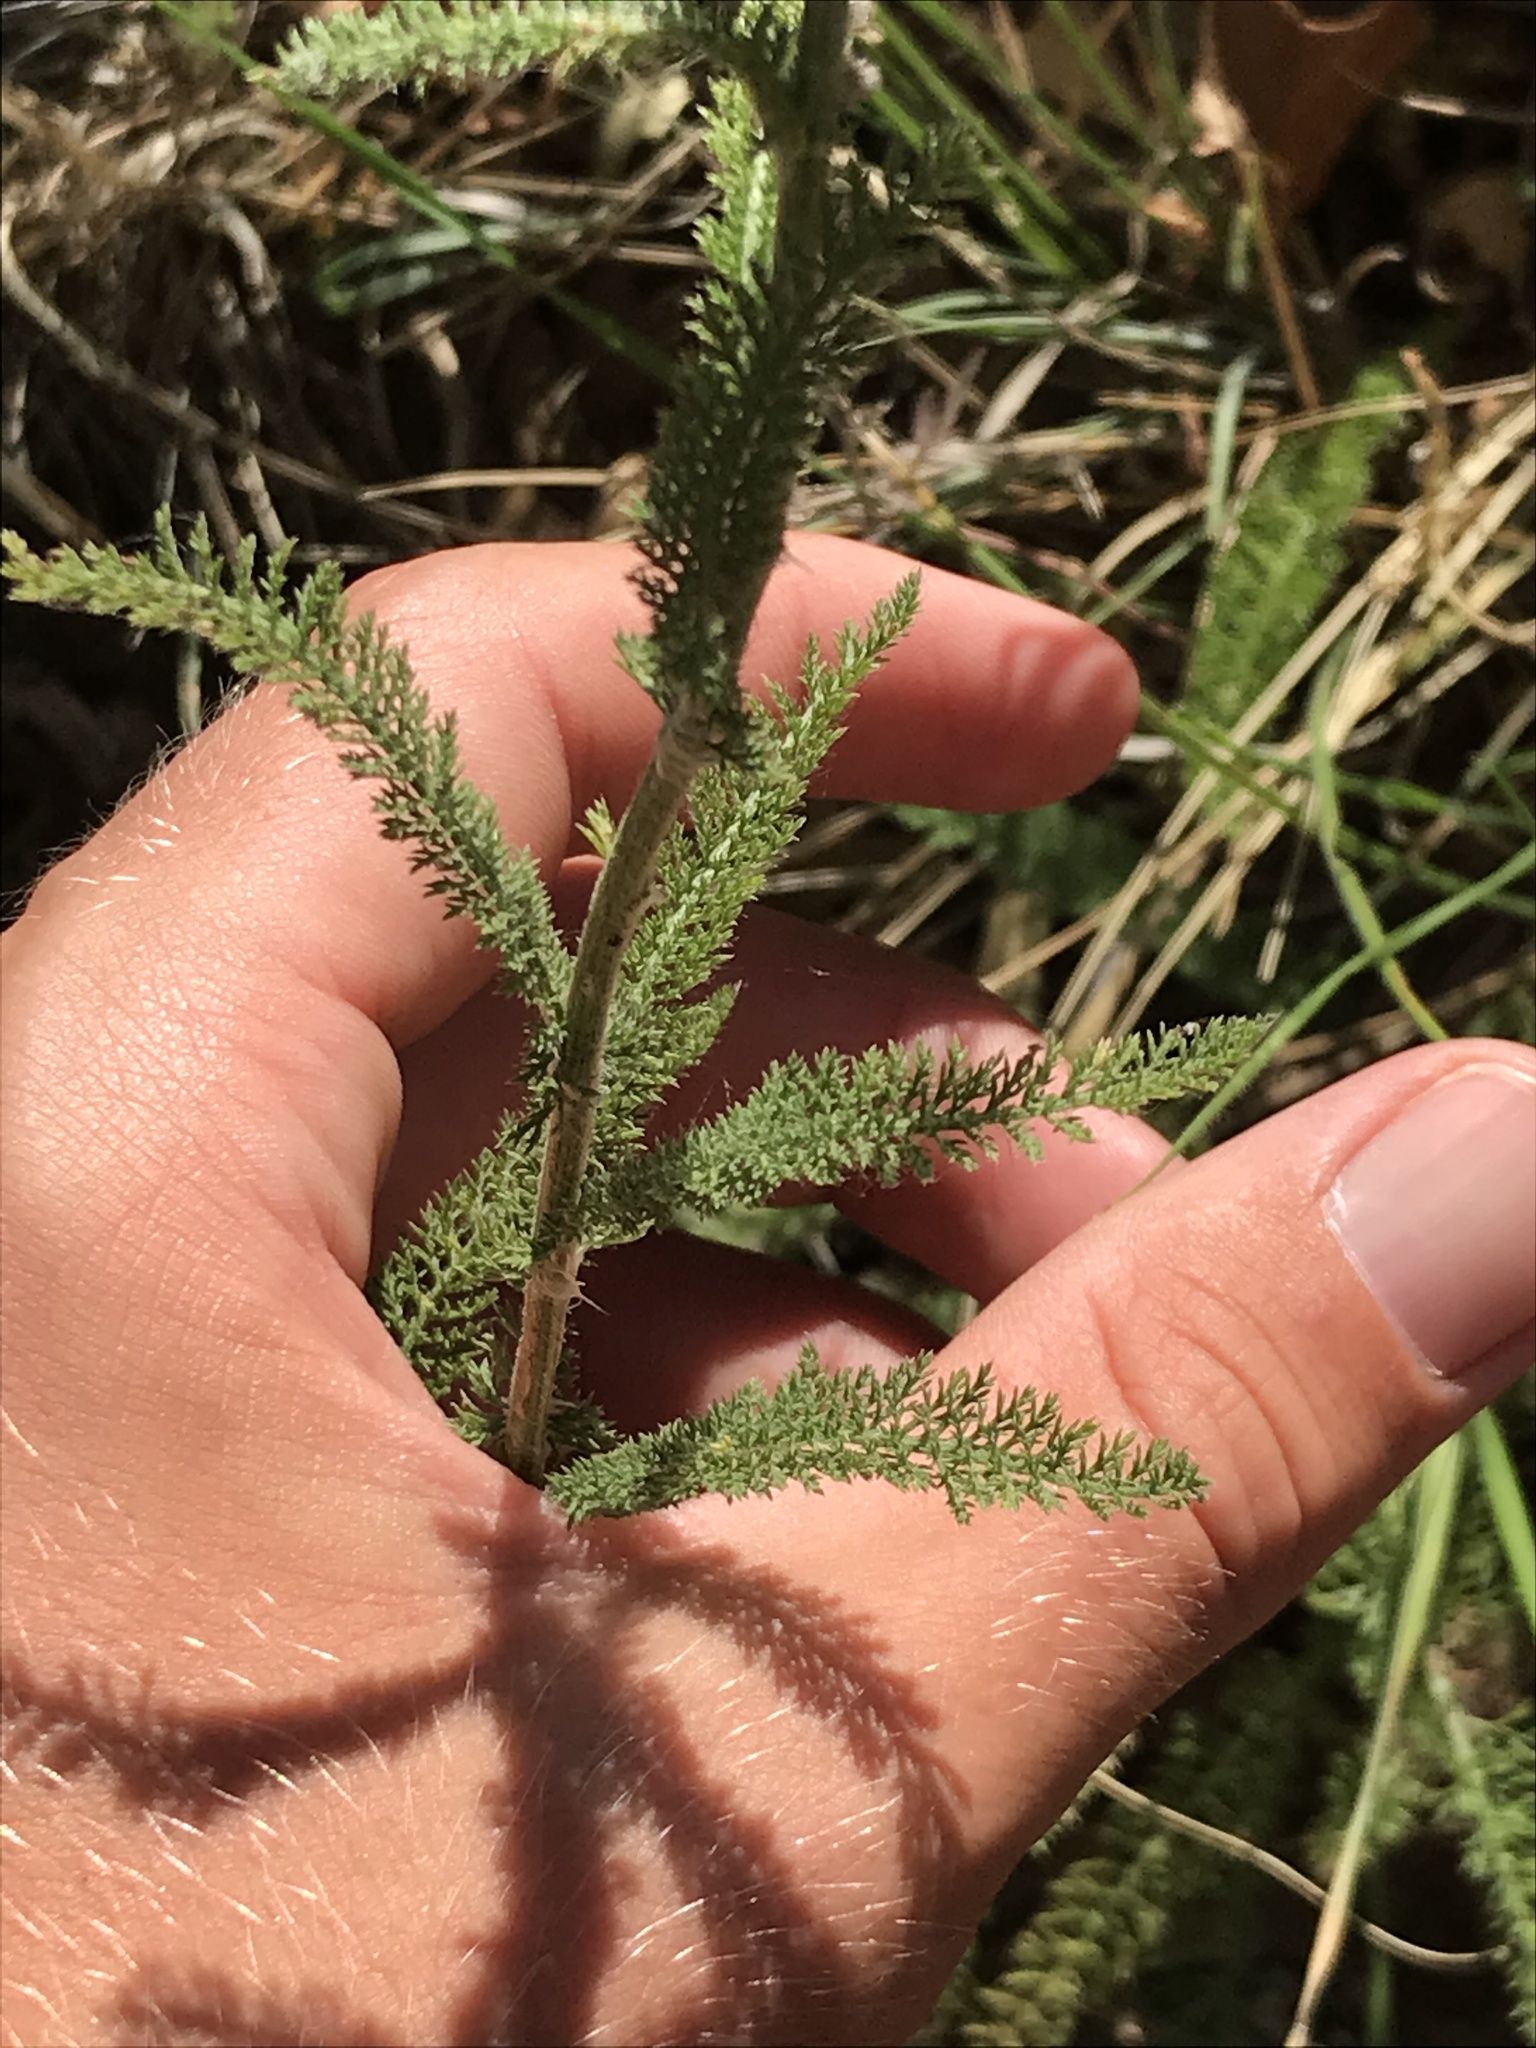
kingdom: Plantae
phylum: Tracheophyta
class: Magnoliopsida
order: Asterales
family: Asteraceae
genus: Achillea
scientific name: Achillea millefolium
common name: Yarrow
